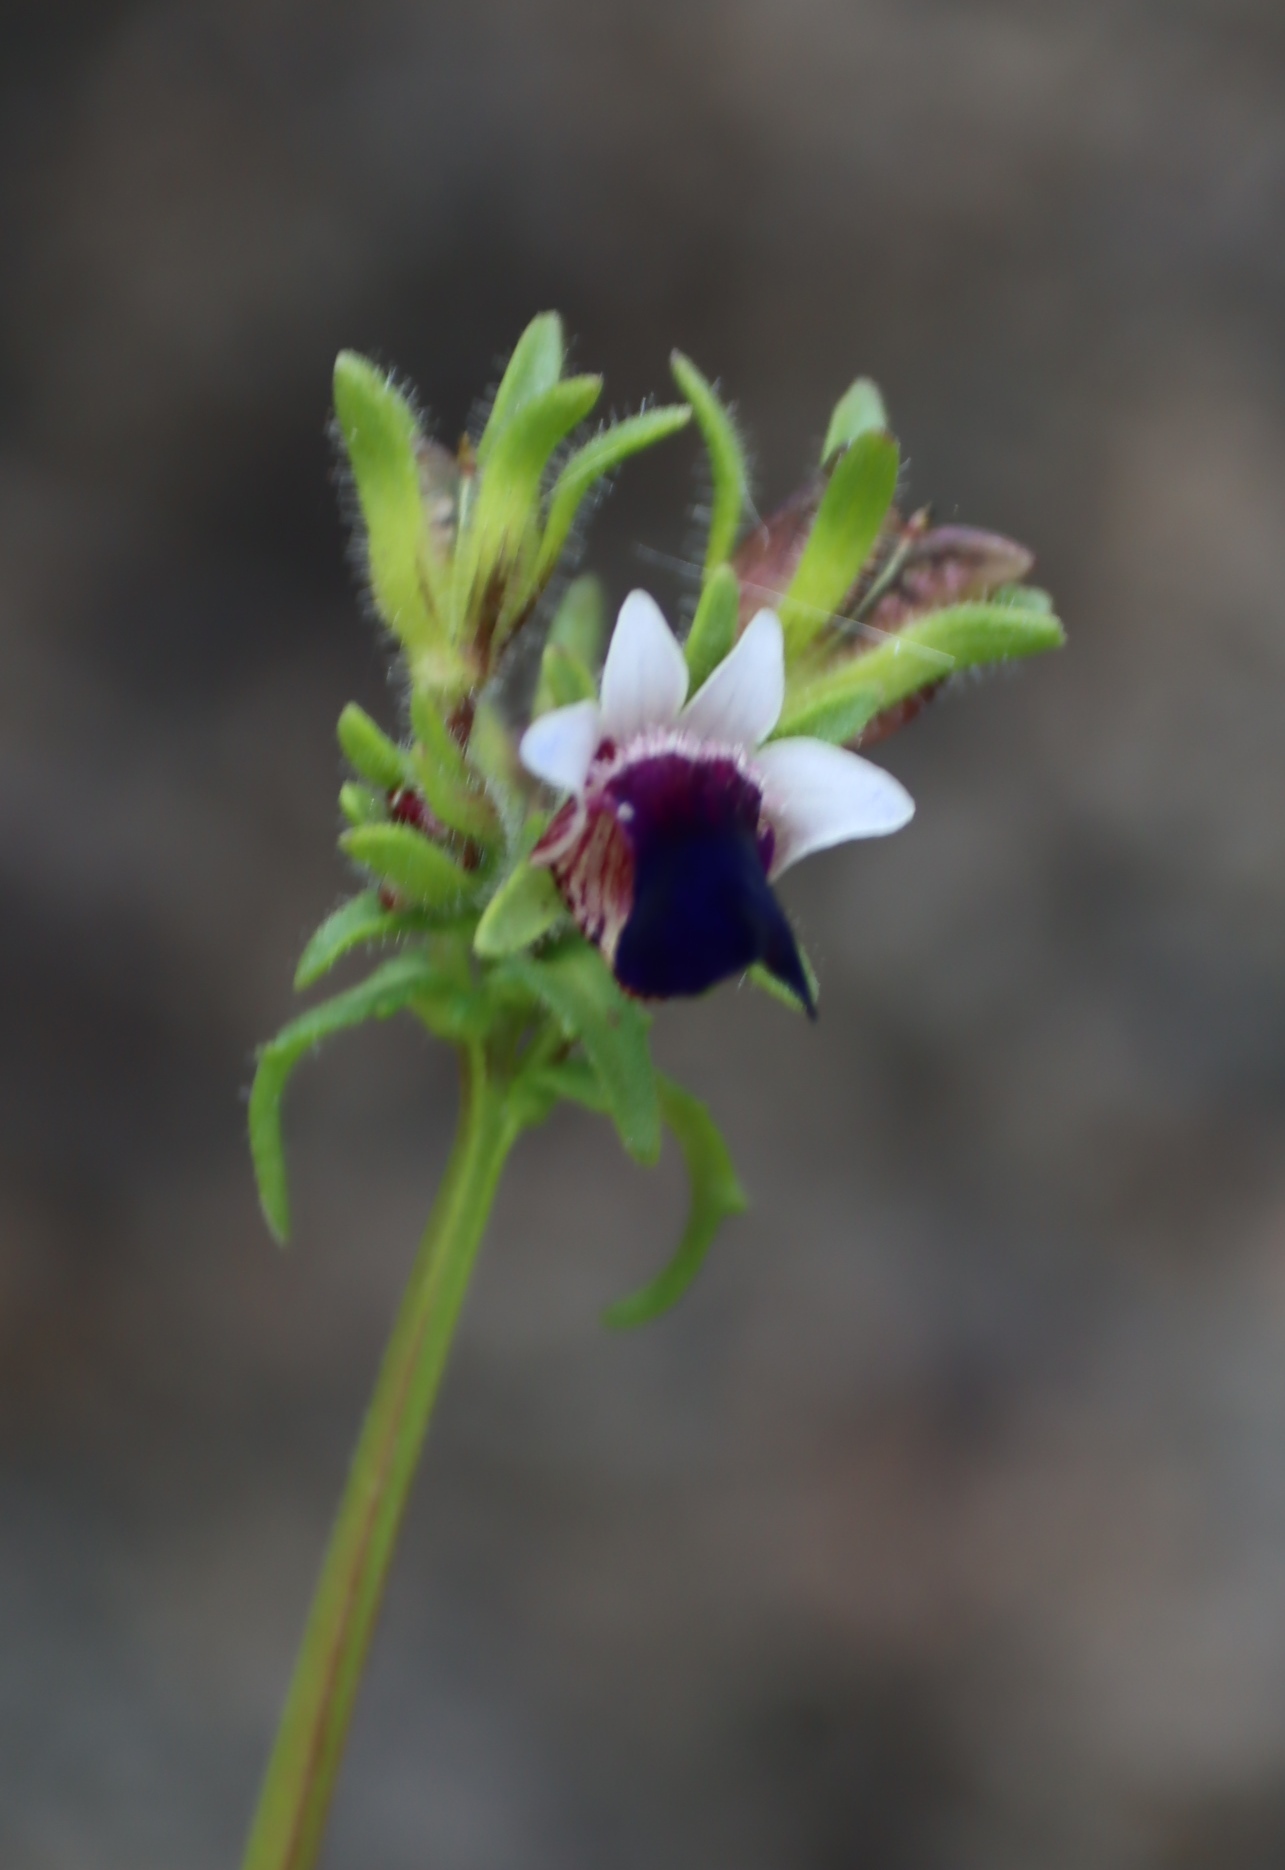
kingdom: Plantae
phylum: Tracheophyta
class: Magnoliopsida
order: Lamiales
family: Scrophulariaceae
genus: Nemesia
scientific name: Nemesia barbata
